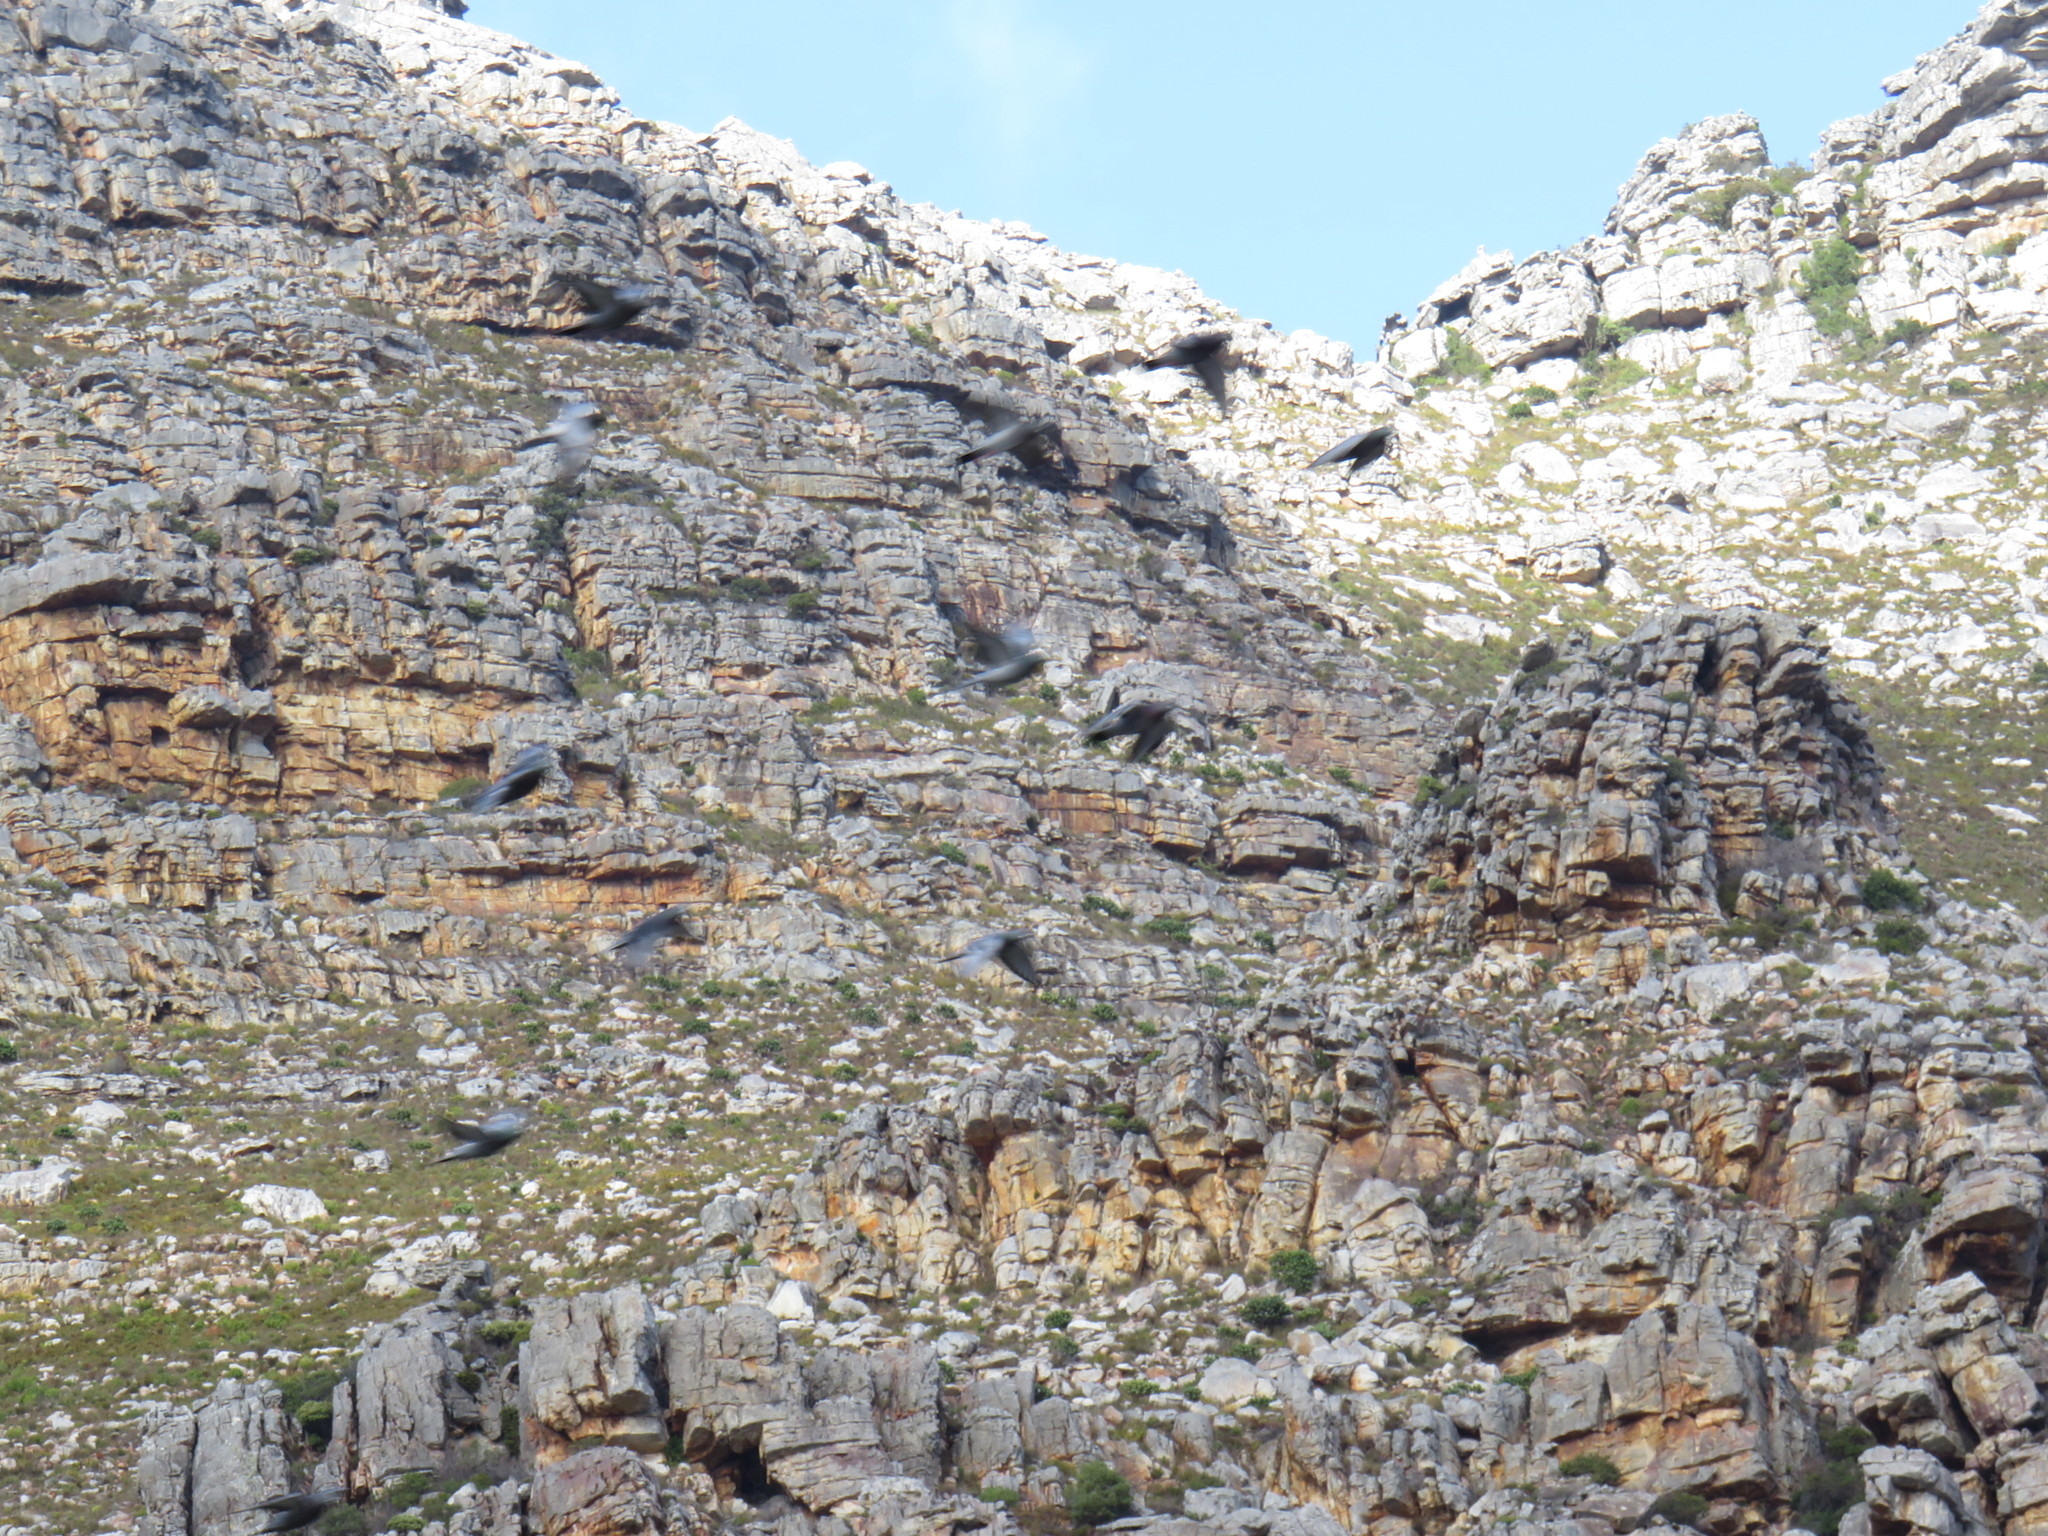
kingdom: Animalia
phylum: Chordata
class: Aves
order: Columbiformes
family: Columbidae
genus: Columba
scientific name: Columba livia
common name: Rock pigeon
